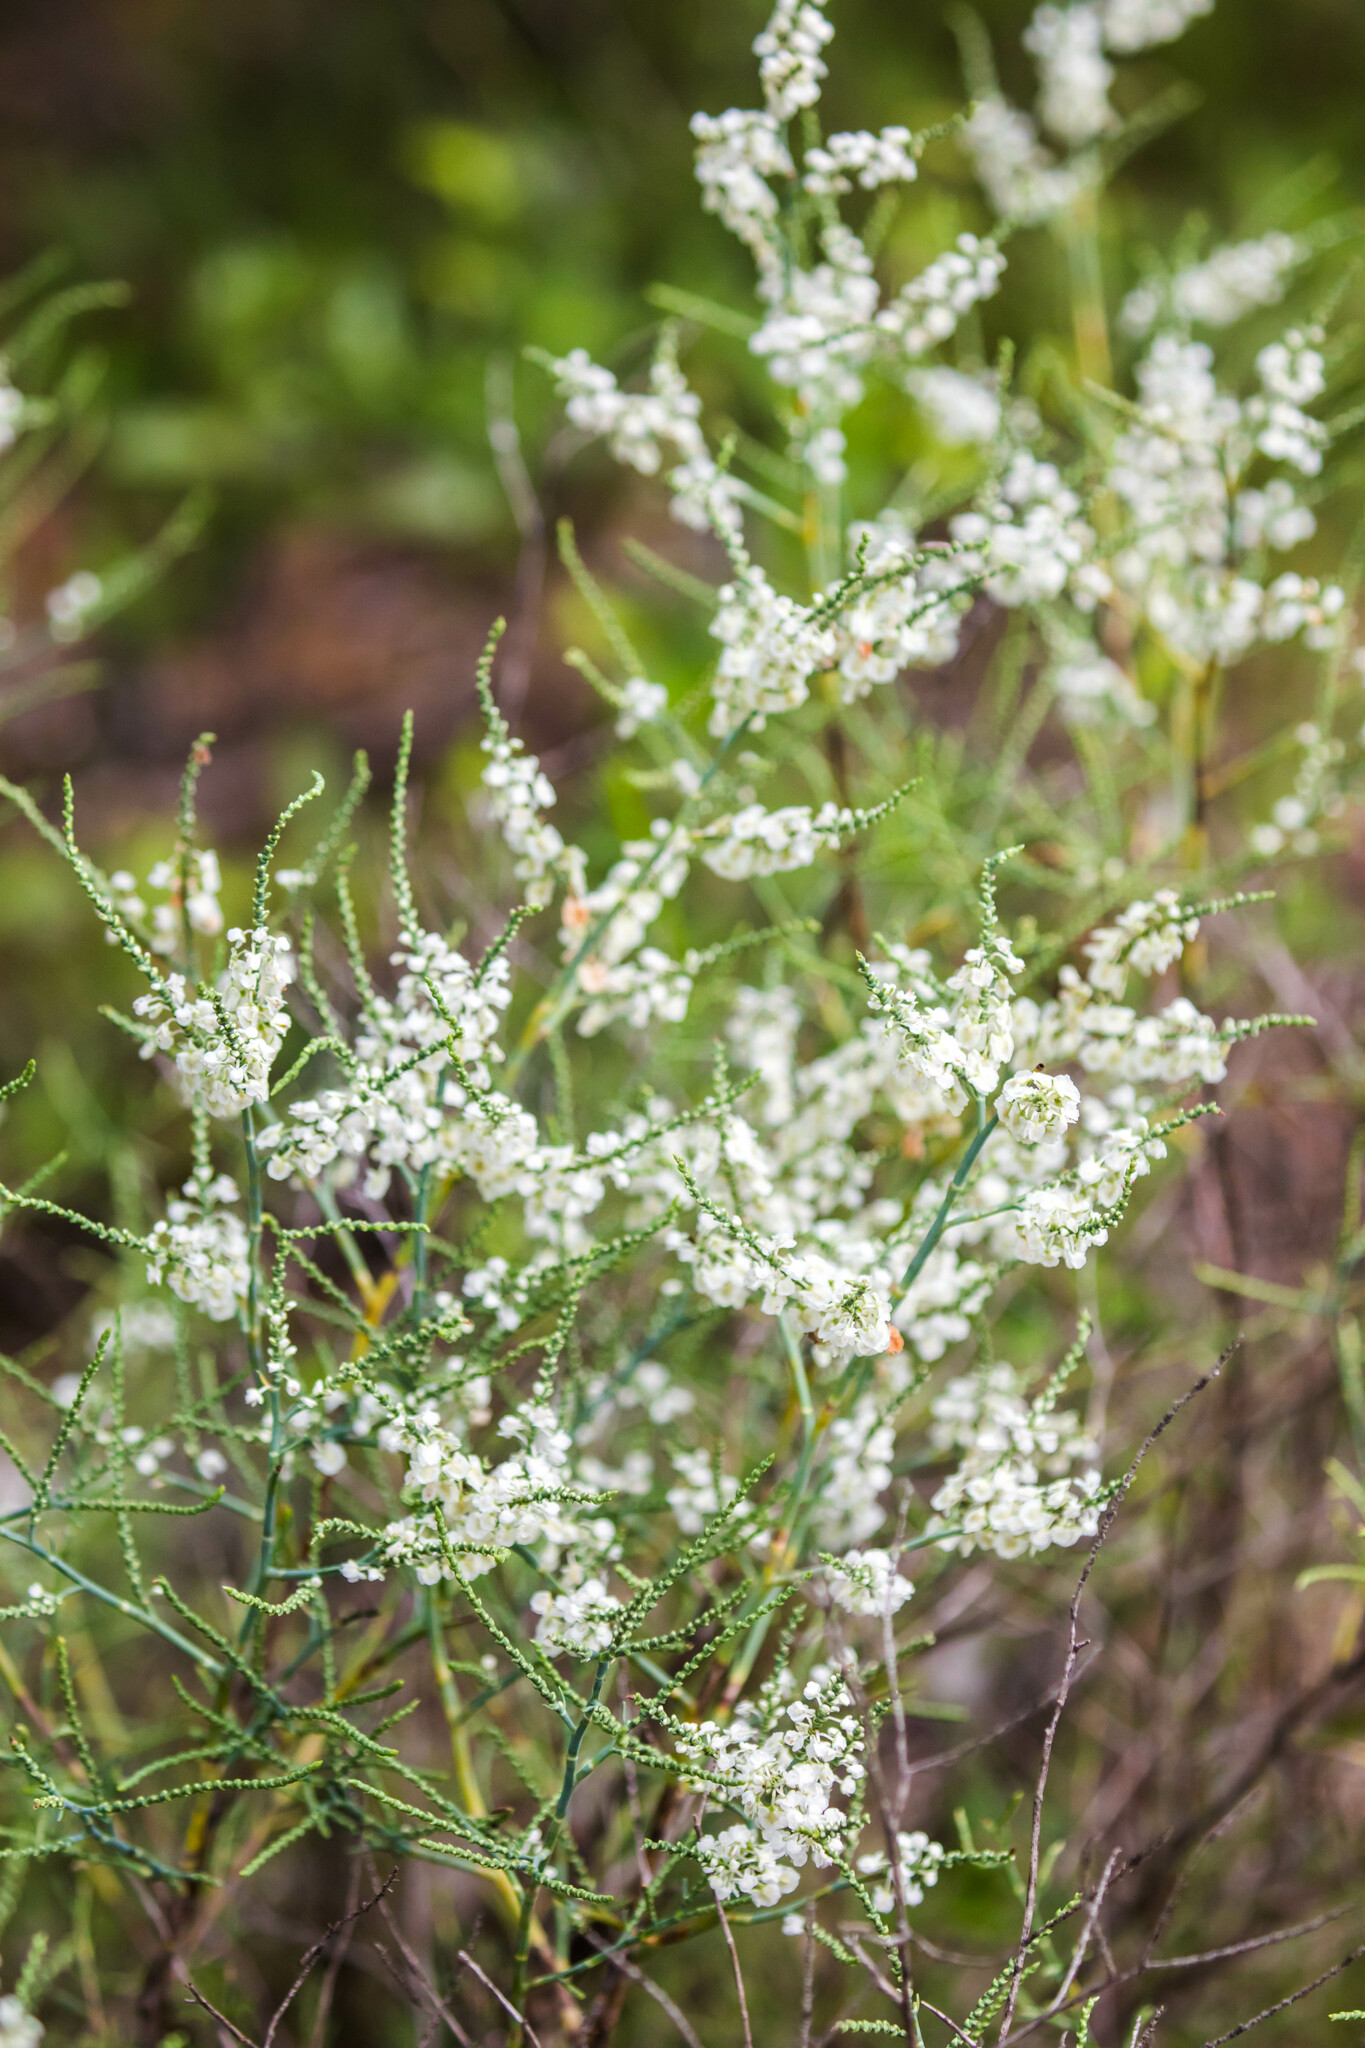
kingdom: Plantae
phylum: Tracheophyta
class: Magnoliopsida
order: Caryophyllales
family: Polygonaceae
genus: Polygonella
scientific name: Polygonella americana
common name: Southern jointweed
